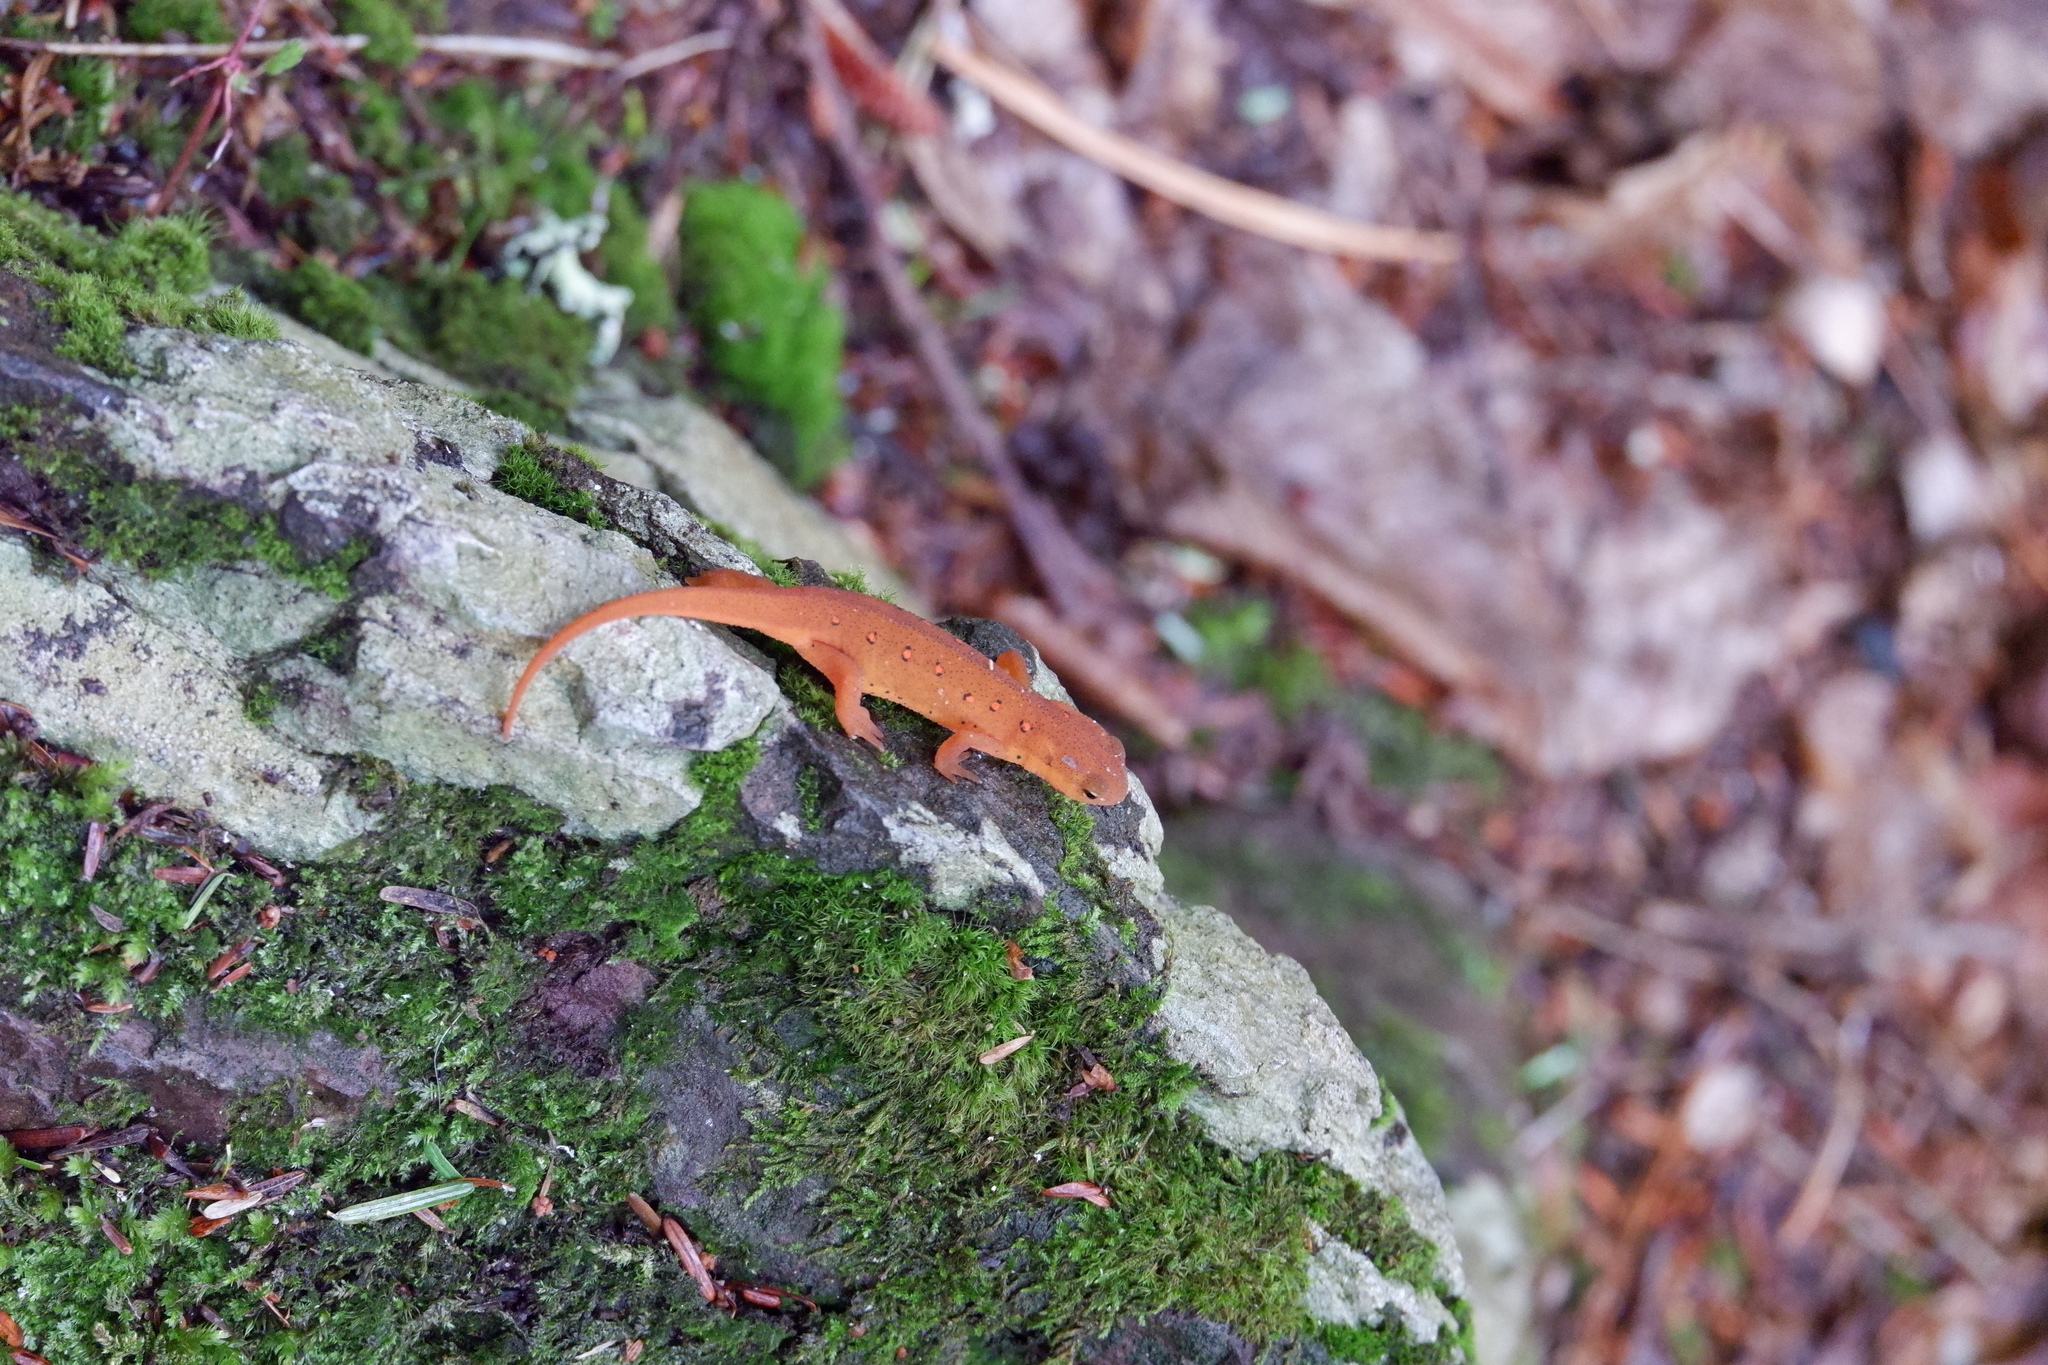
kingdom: Animalia
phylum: Chordata
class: Amphibia
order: Caudata
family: Salamandridae
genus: Notophthalmus
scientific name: Notophthalmus viridescens
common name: Eastern newt
